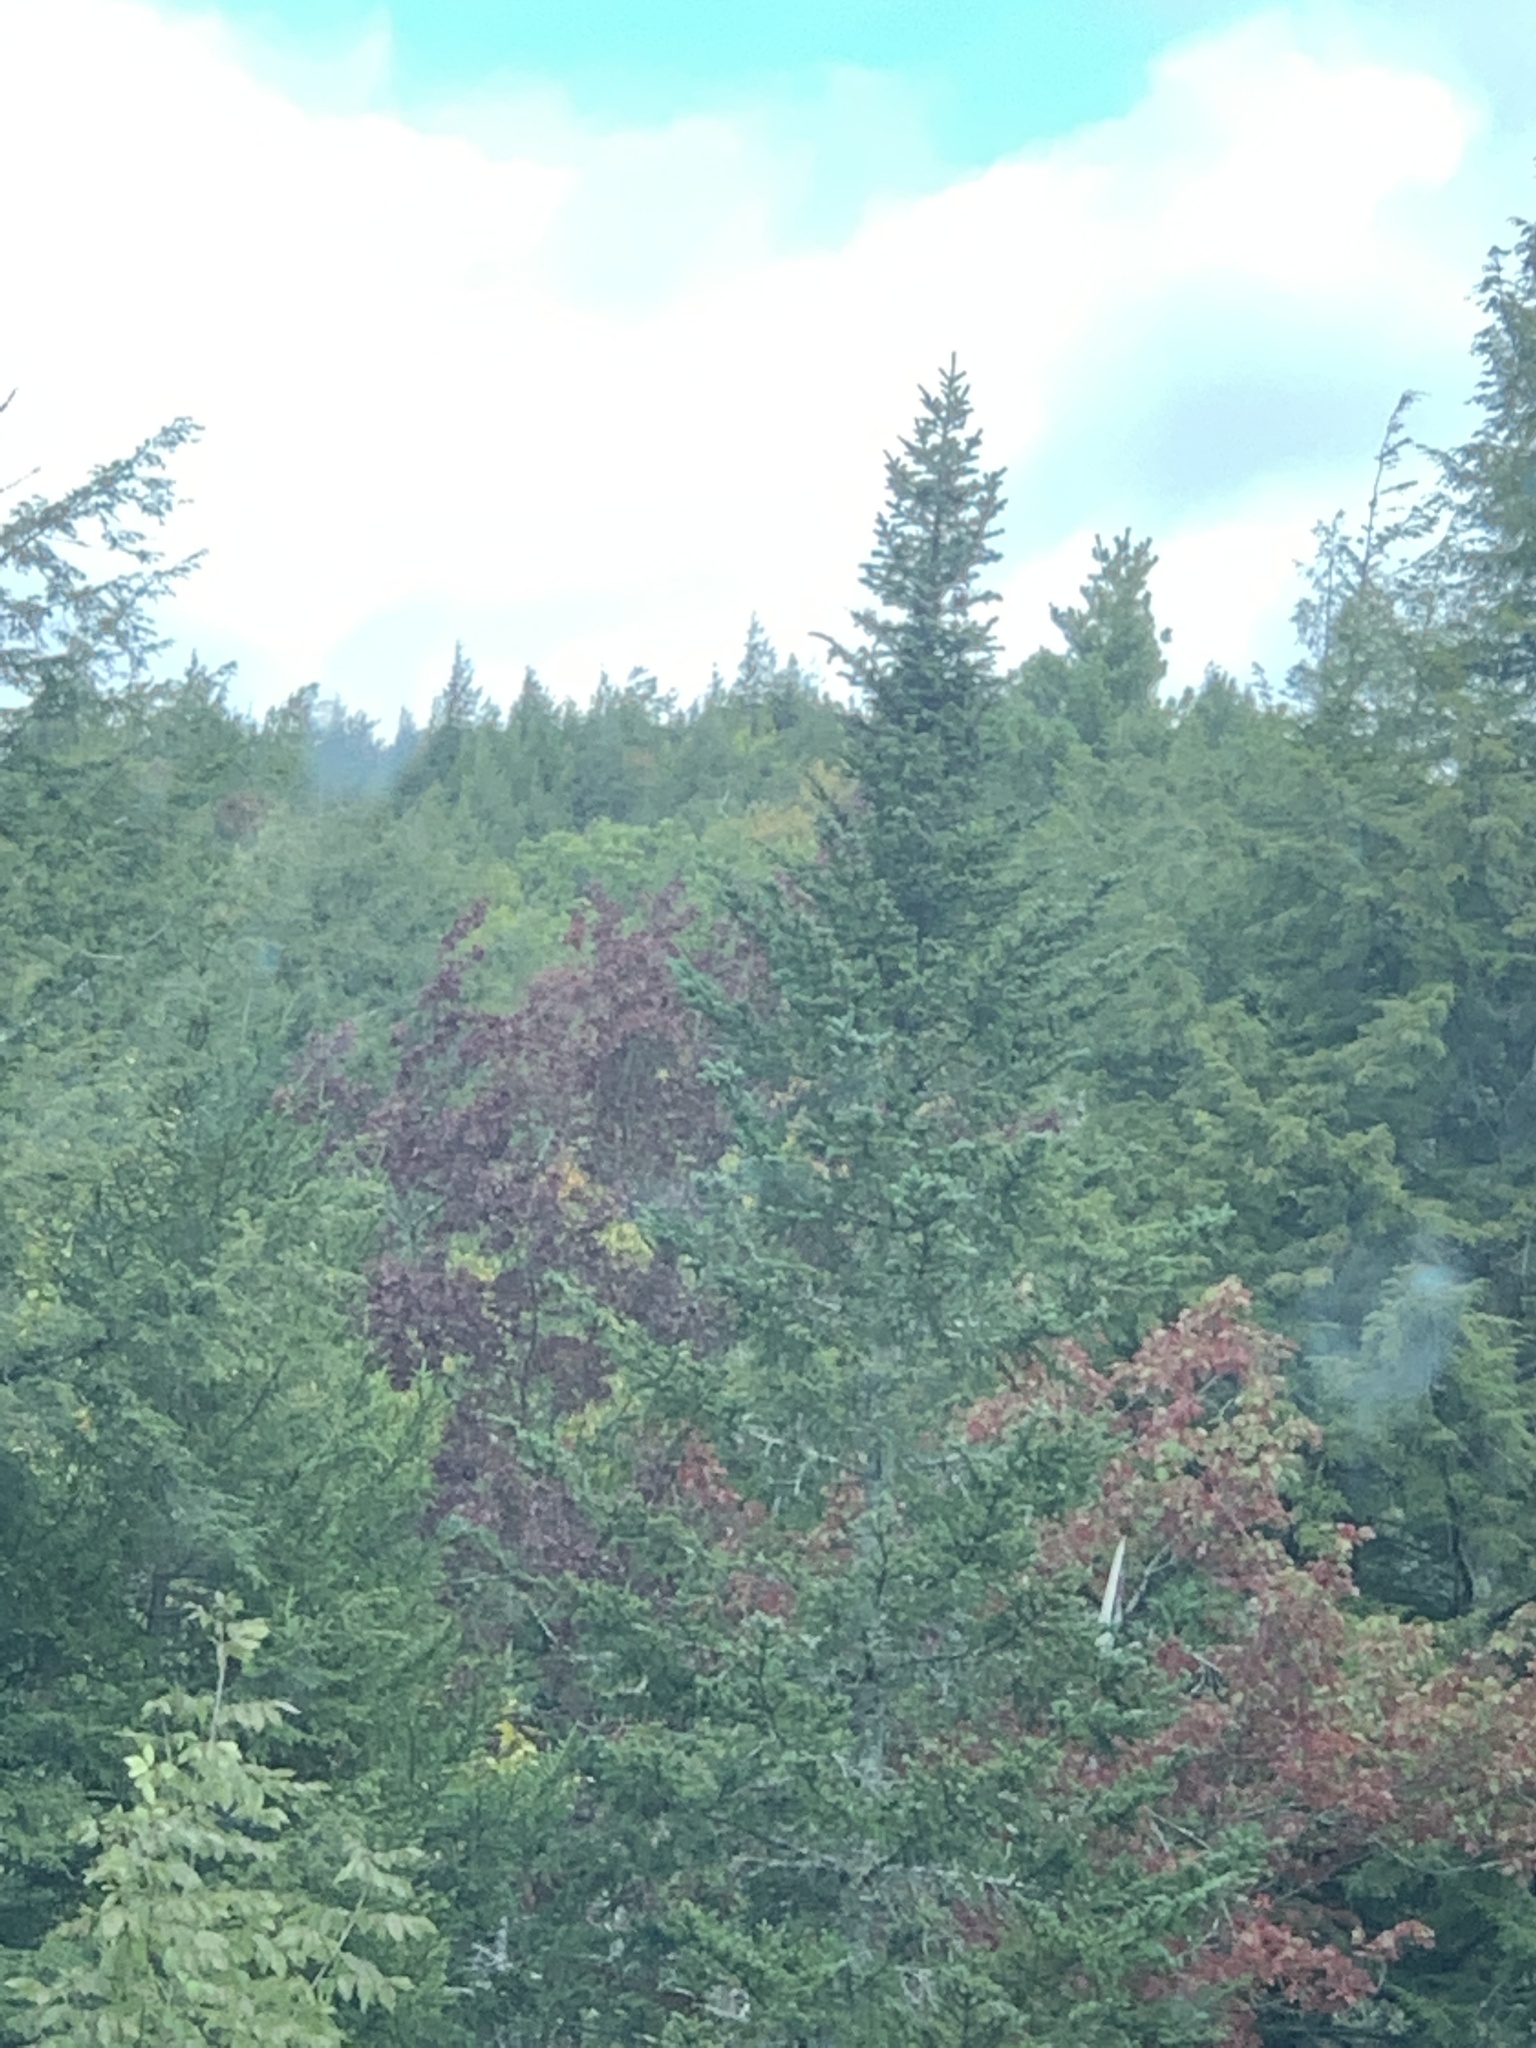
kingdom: Plantae
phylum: Tracheophyta
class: Pinopsida
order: Pinales
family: Pinaceae
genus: Abies
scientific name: Abies balsamea
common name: Balsam fir
